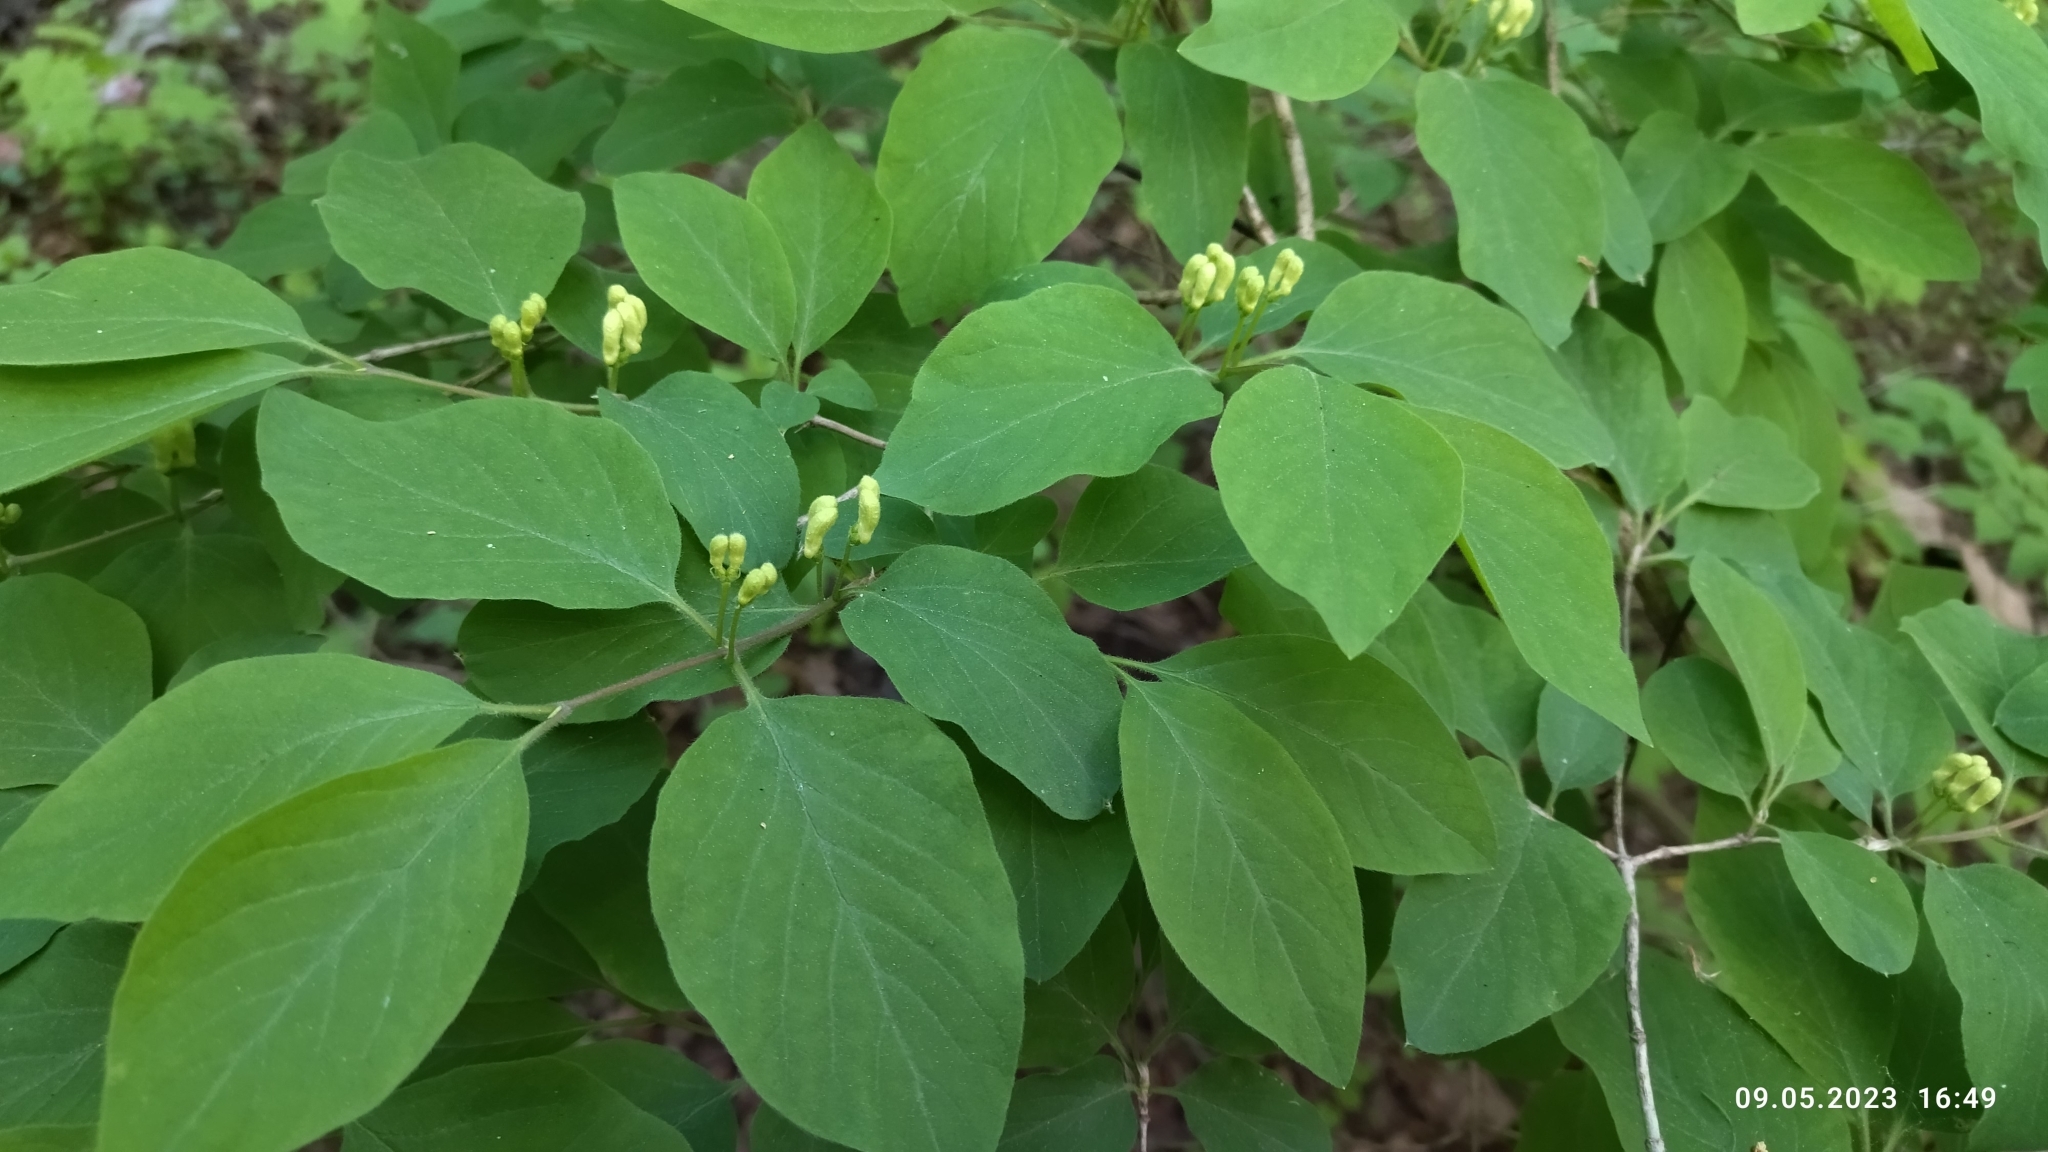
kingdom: Plantae
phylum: Tracheophyta
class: Magnoliopsida
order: Dipsacales
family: Caprifoliaceae
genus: Lonicera
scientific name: Lonicera xylosteum
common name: Fly honeysuckle
